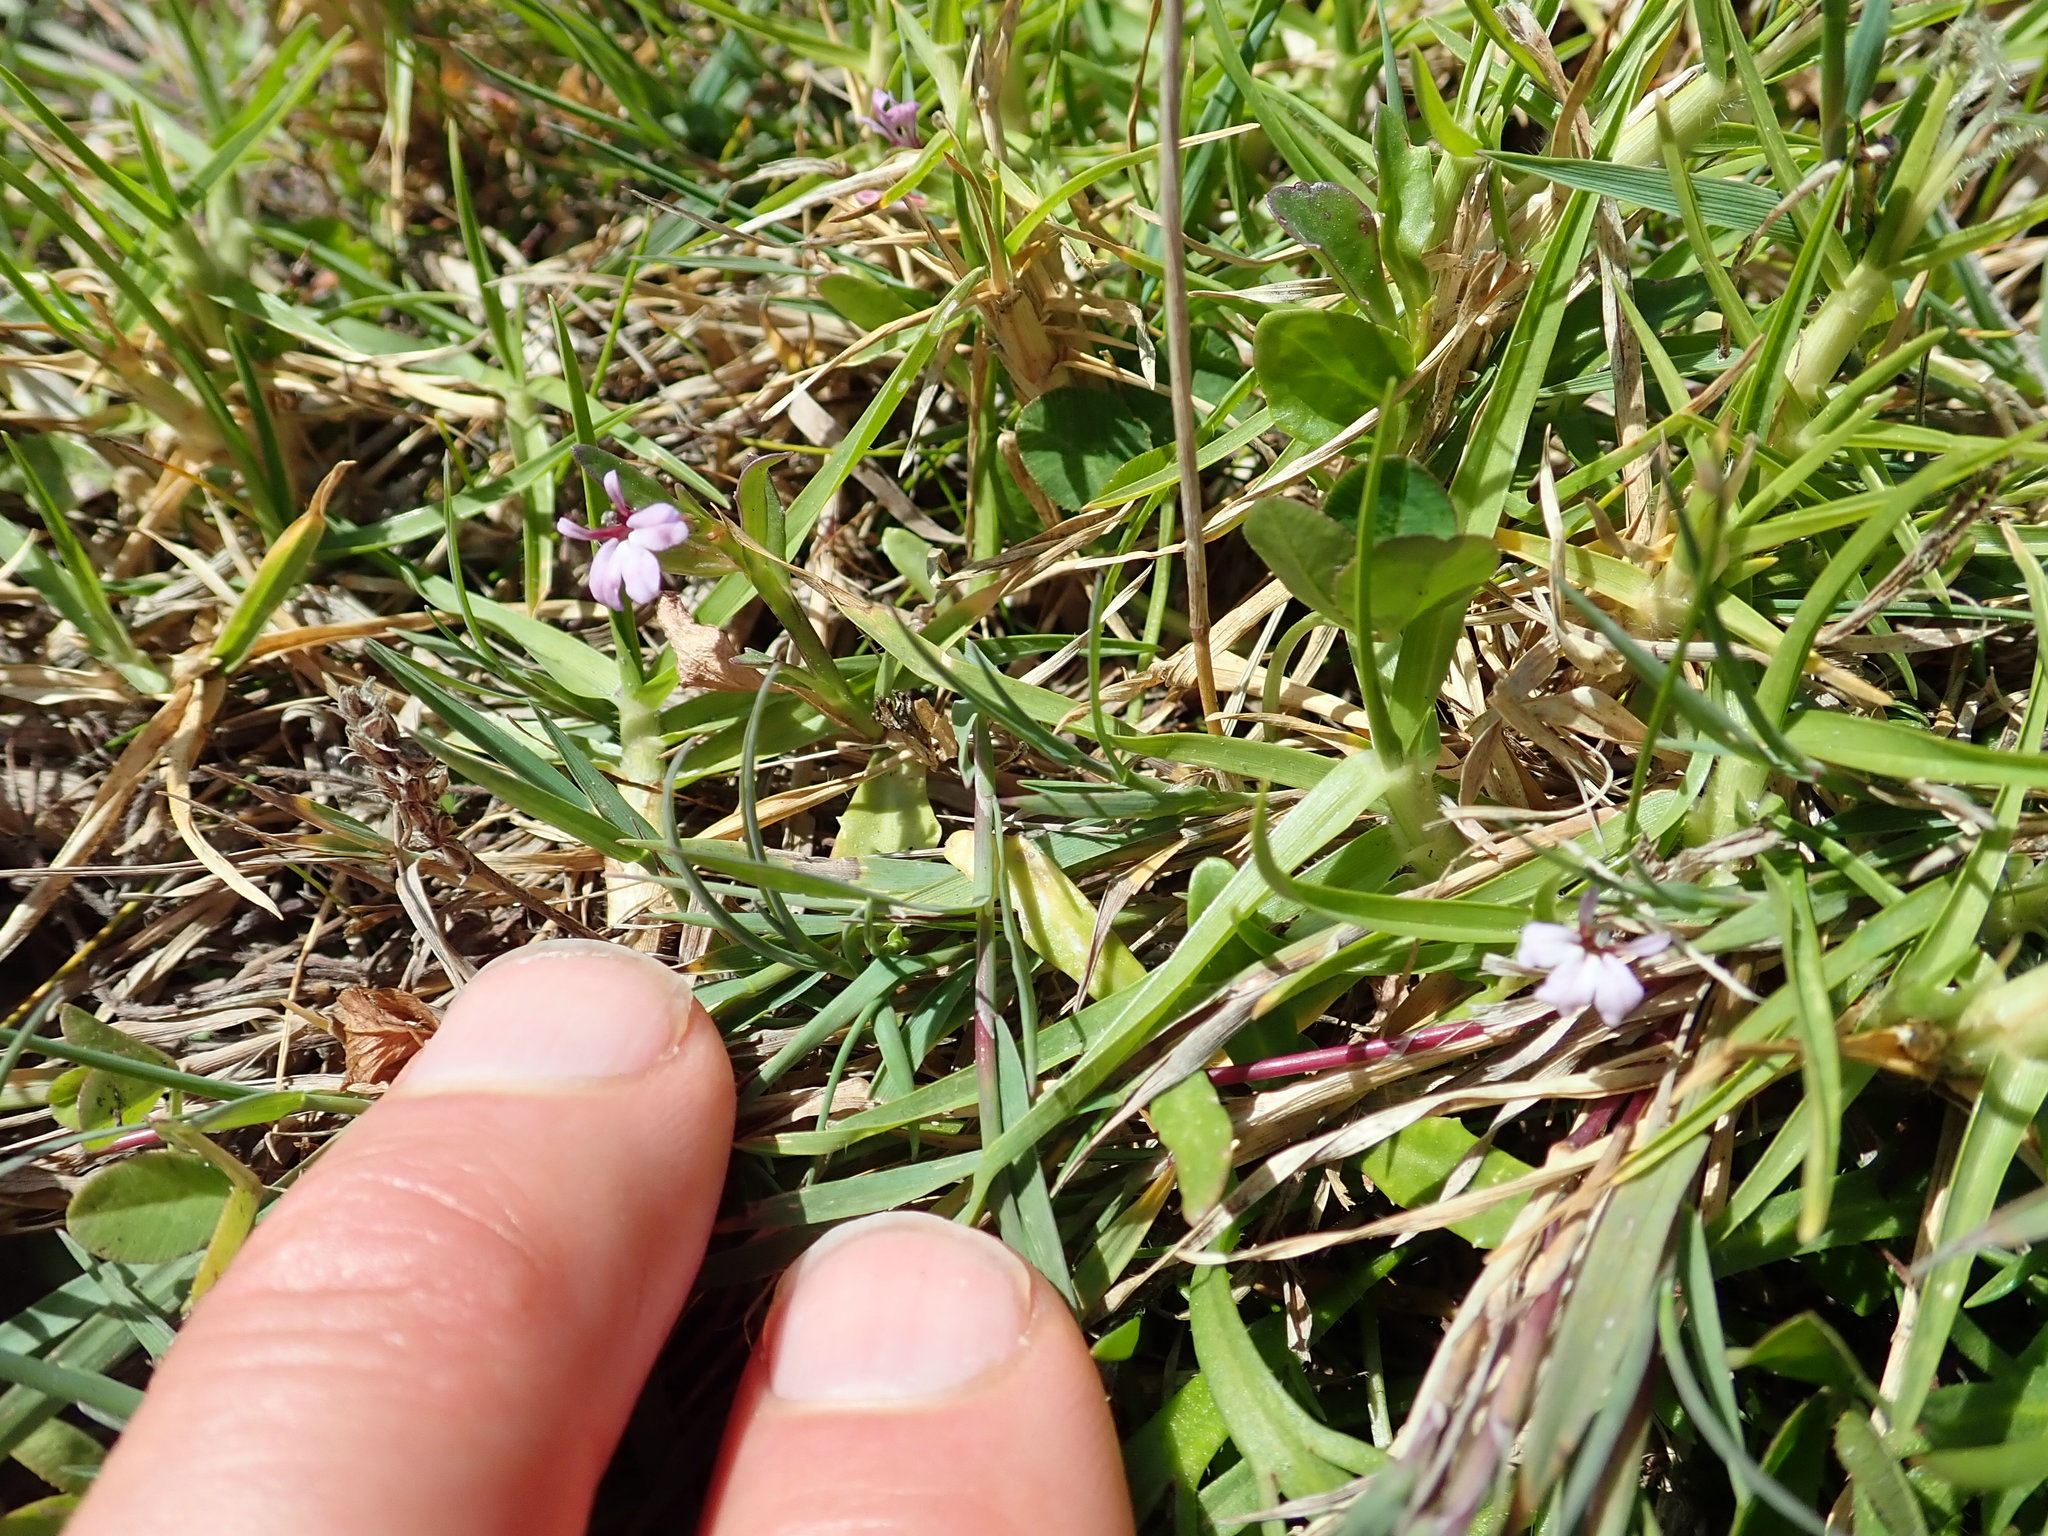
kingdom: Plantae
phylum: Tracheophyta
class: Magnoliopsida
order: Asterales
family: Campanulaceae
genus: Lobelia
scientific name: Lobelia anceps
